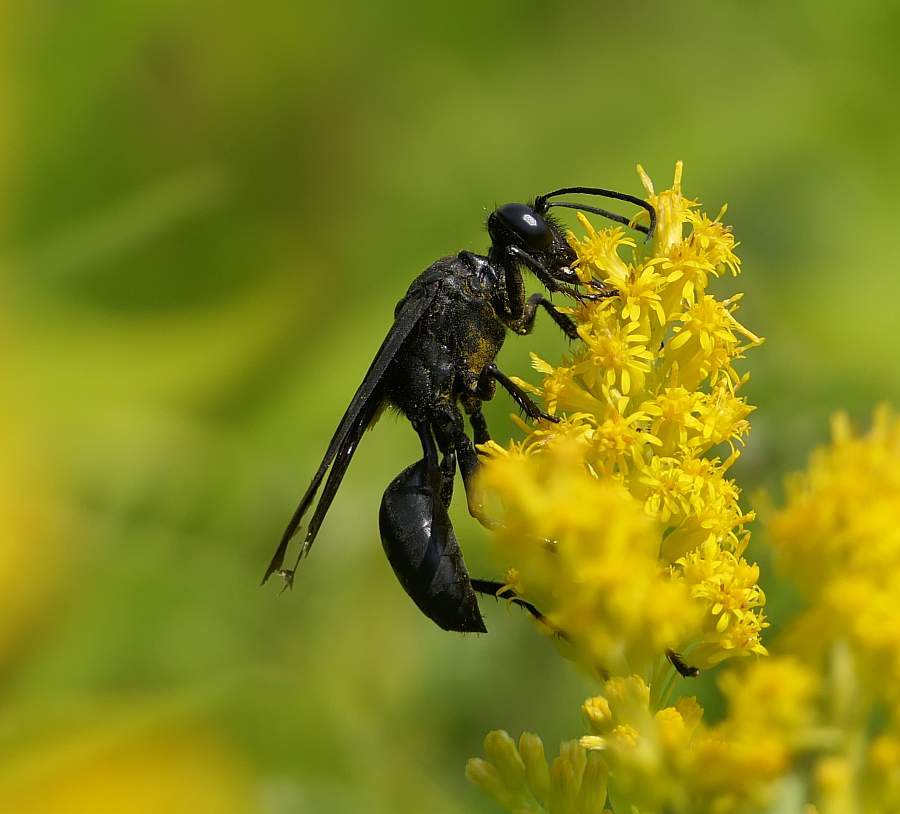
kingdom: Animalia
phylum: Arthropoda
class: Insecta
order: Hymenoptera
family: Sphecidae
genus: Sphex
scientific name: Sphex pensylvanicus
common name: Great black digger wasp
